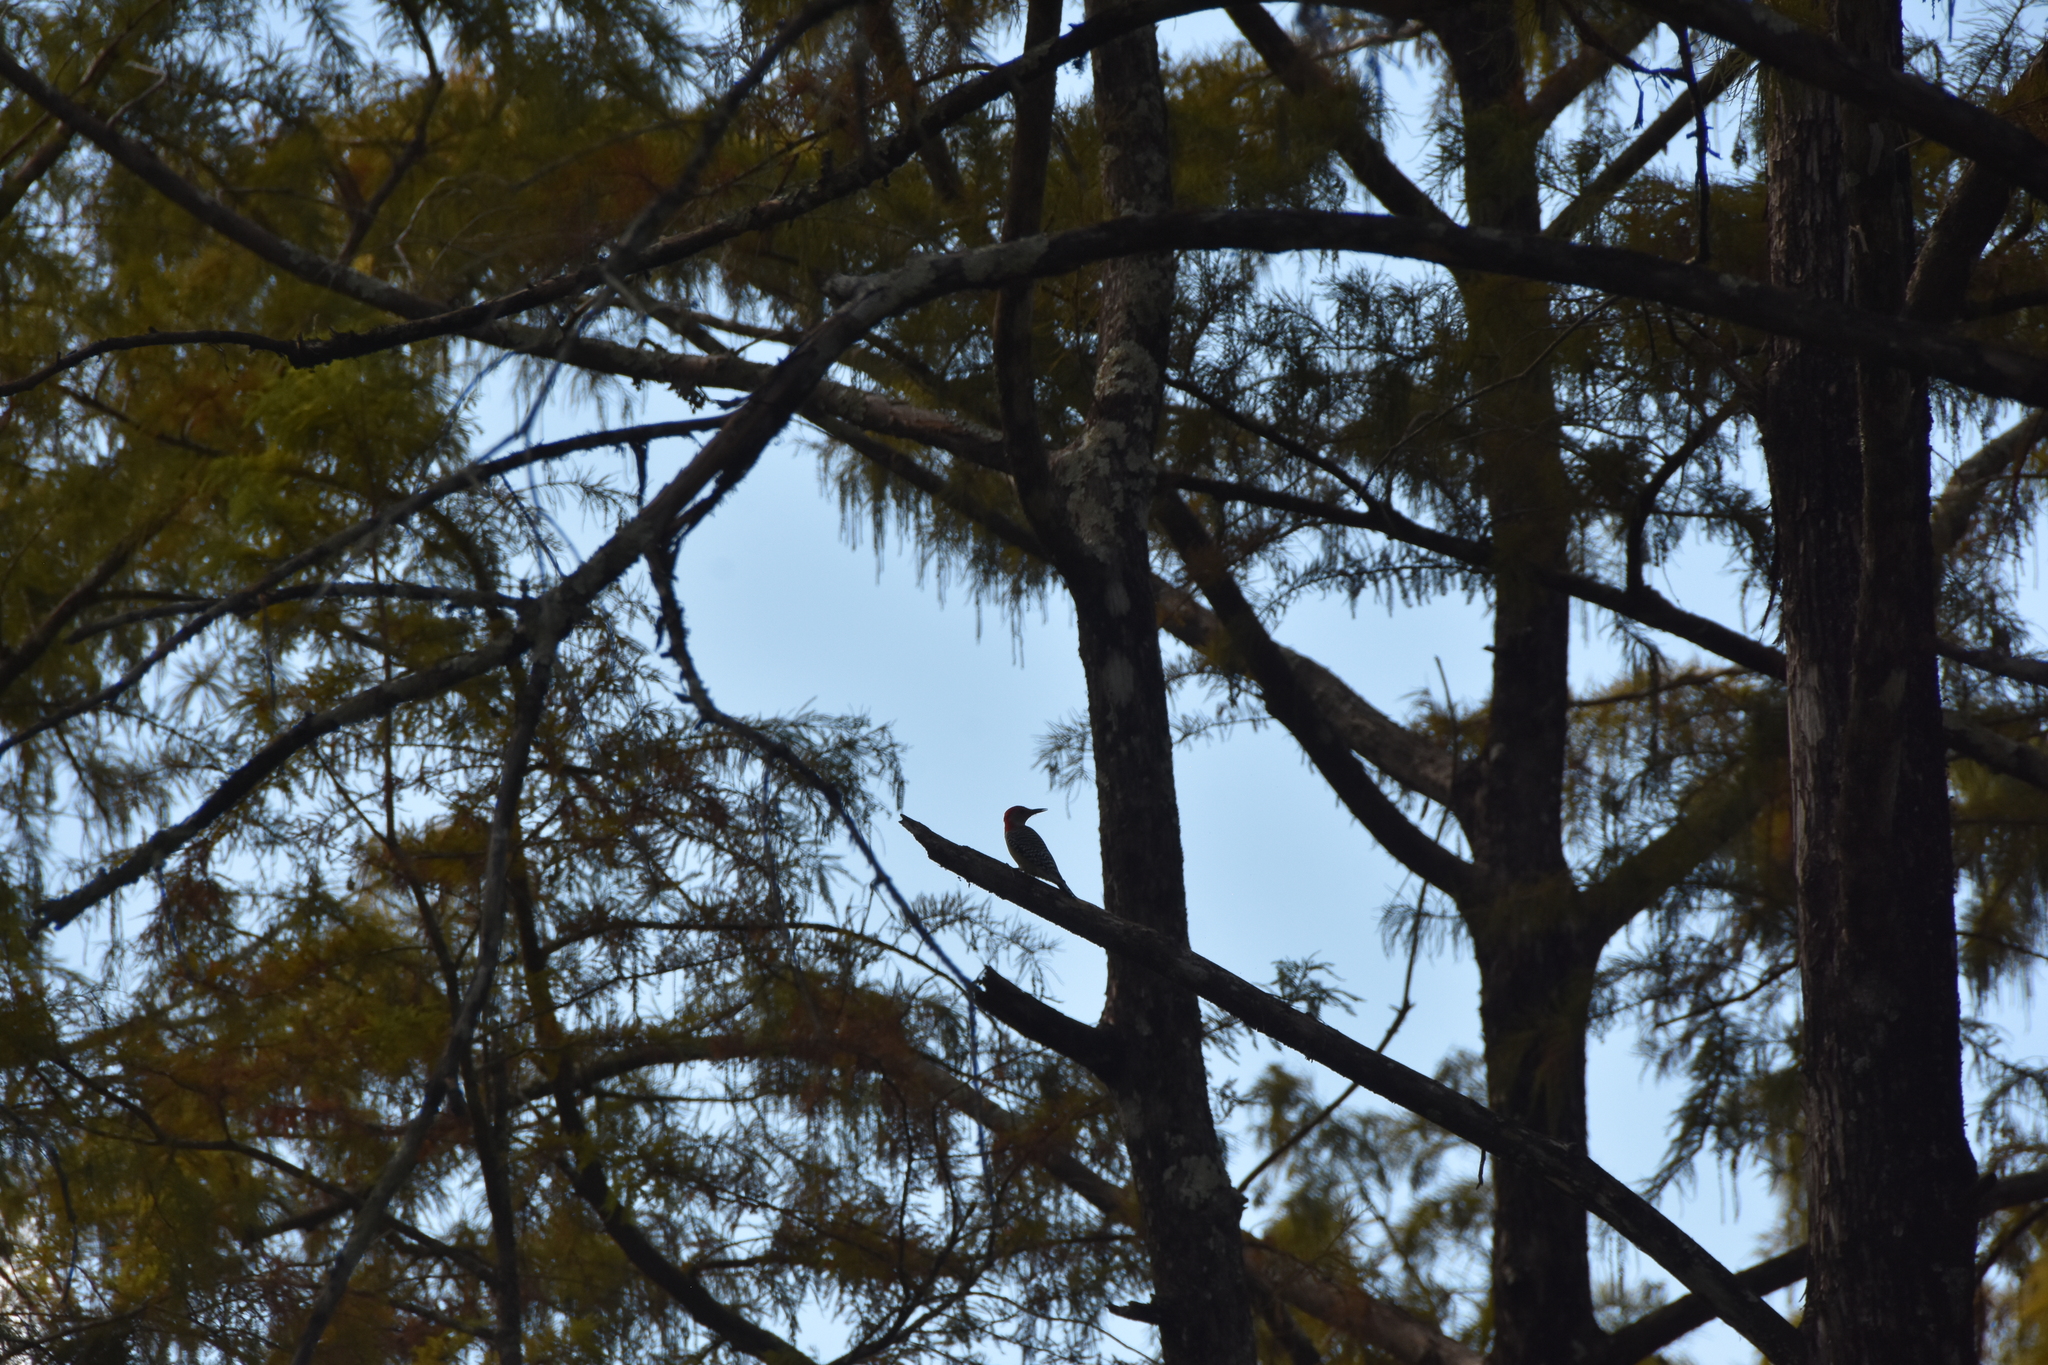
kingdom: Animalia
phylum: Chordata
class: Aves
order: Piciformes
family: Picidae
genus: Melanerpes
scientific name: Melanerpes carolinus
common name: Red-bellied woodpecker
